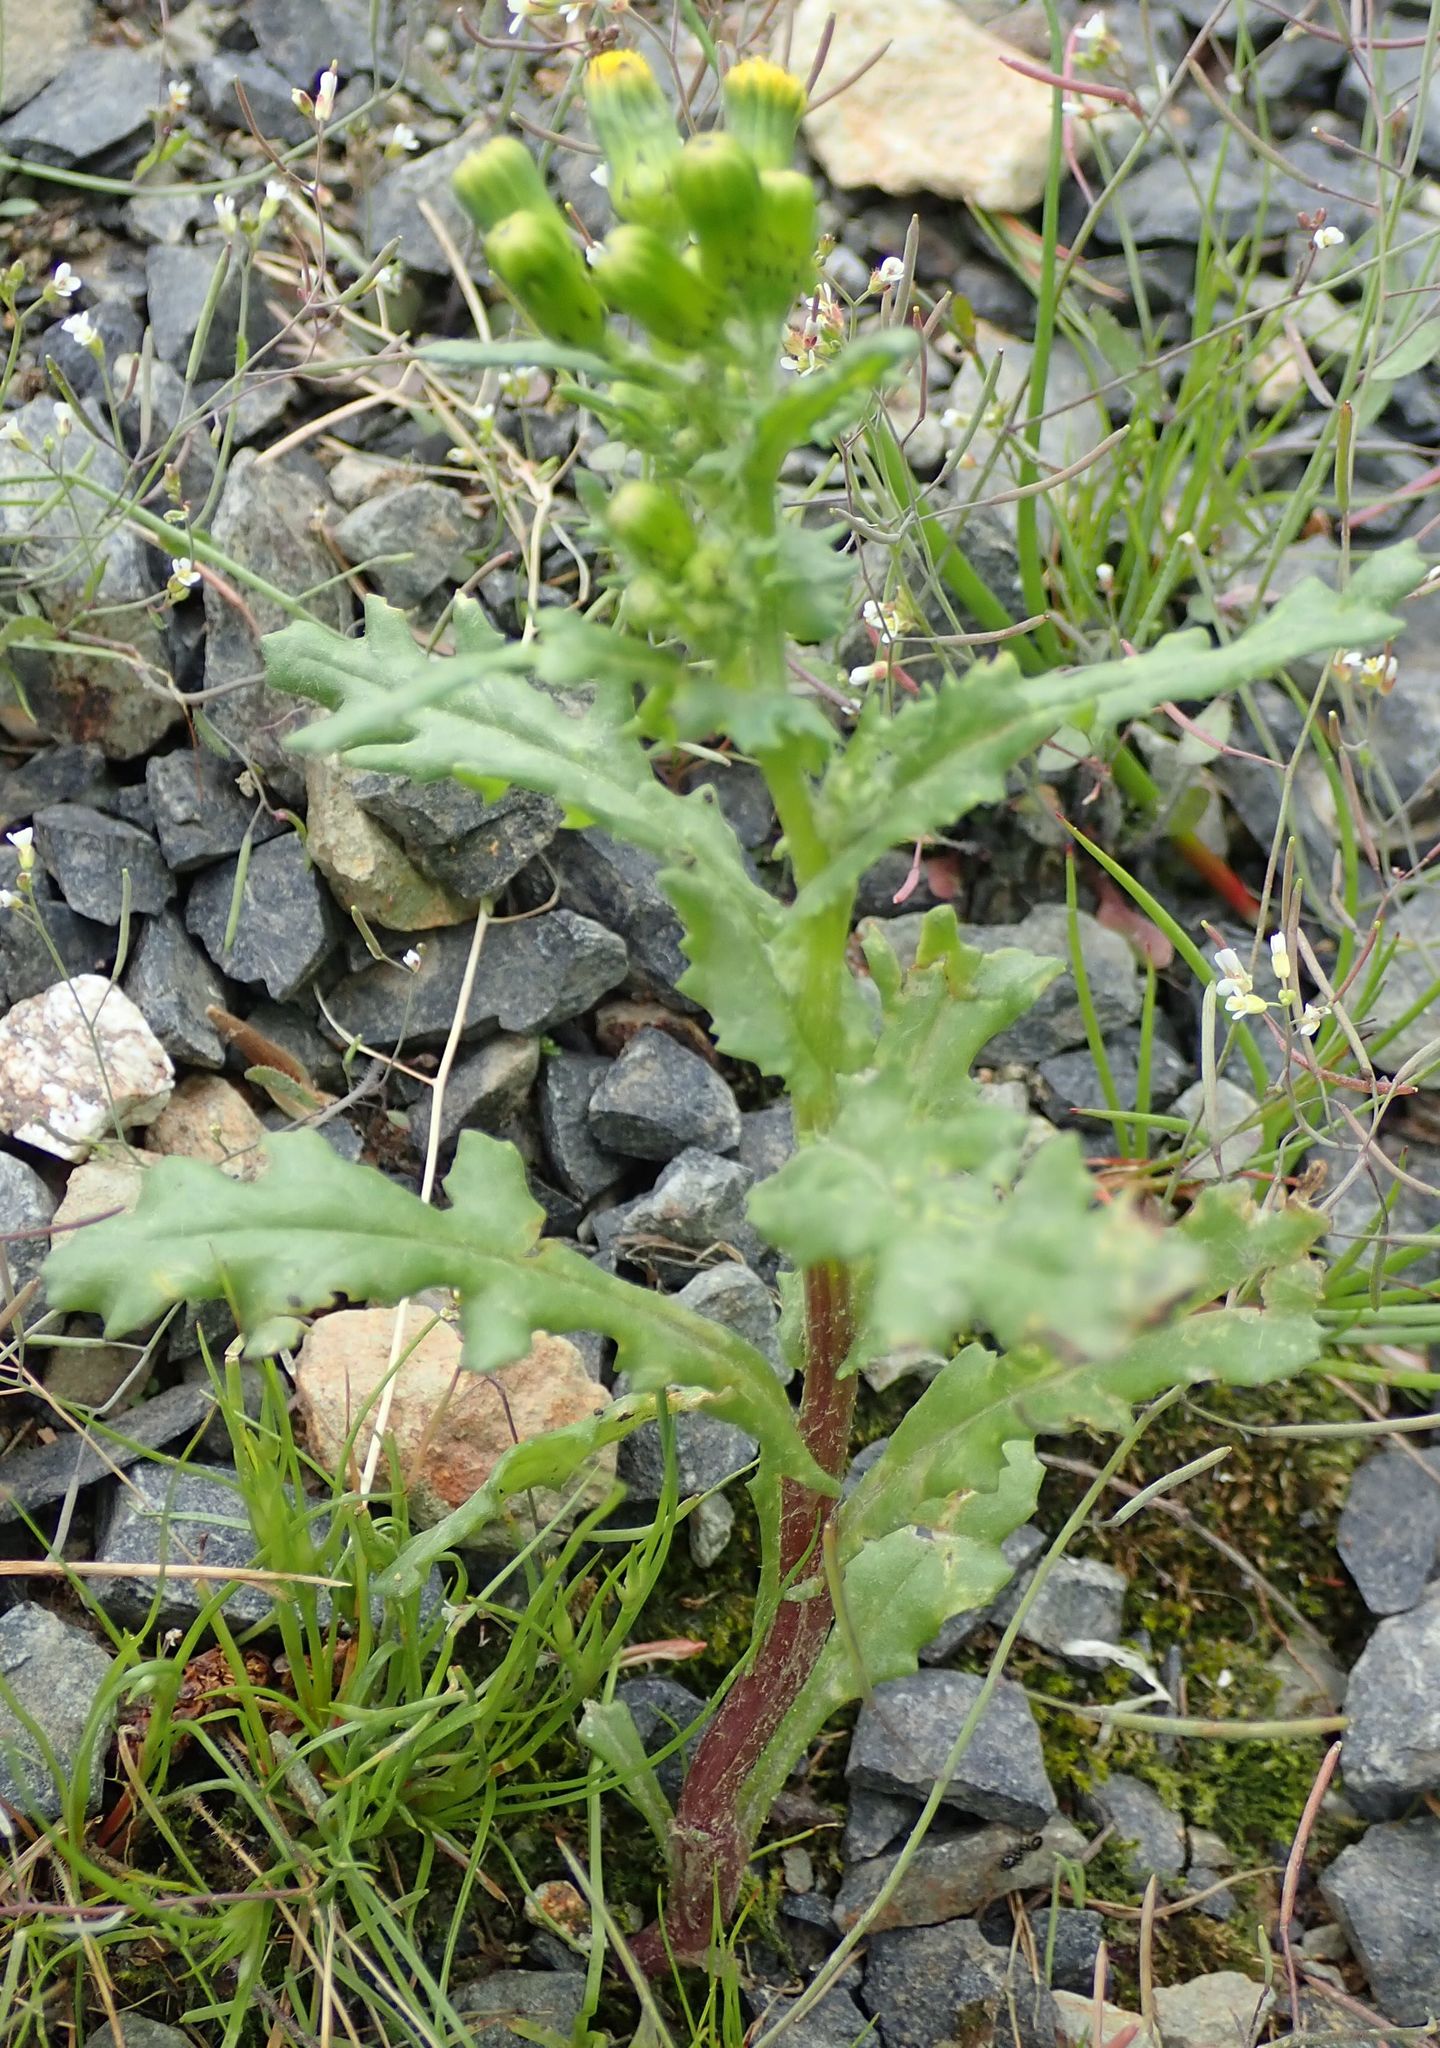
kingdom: Plantae
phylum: Tracheophyta
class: Magnoliopsida
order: Asterales
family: Asteraceae
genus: Senecio
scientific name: Senecio vulgaris
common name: Old-man-in-the-spring
